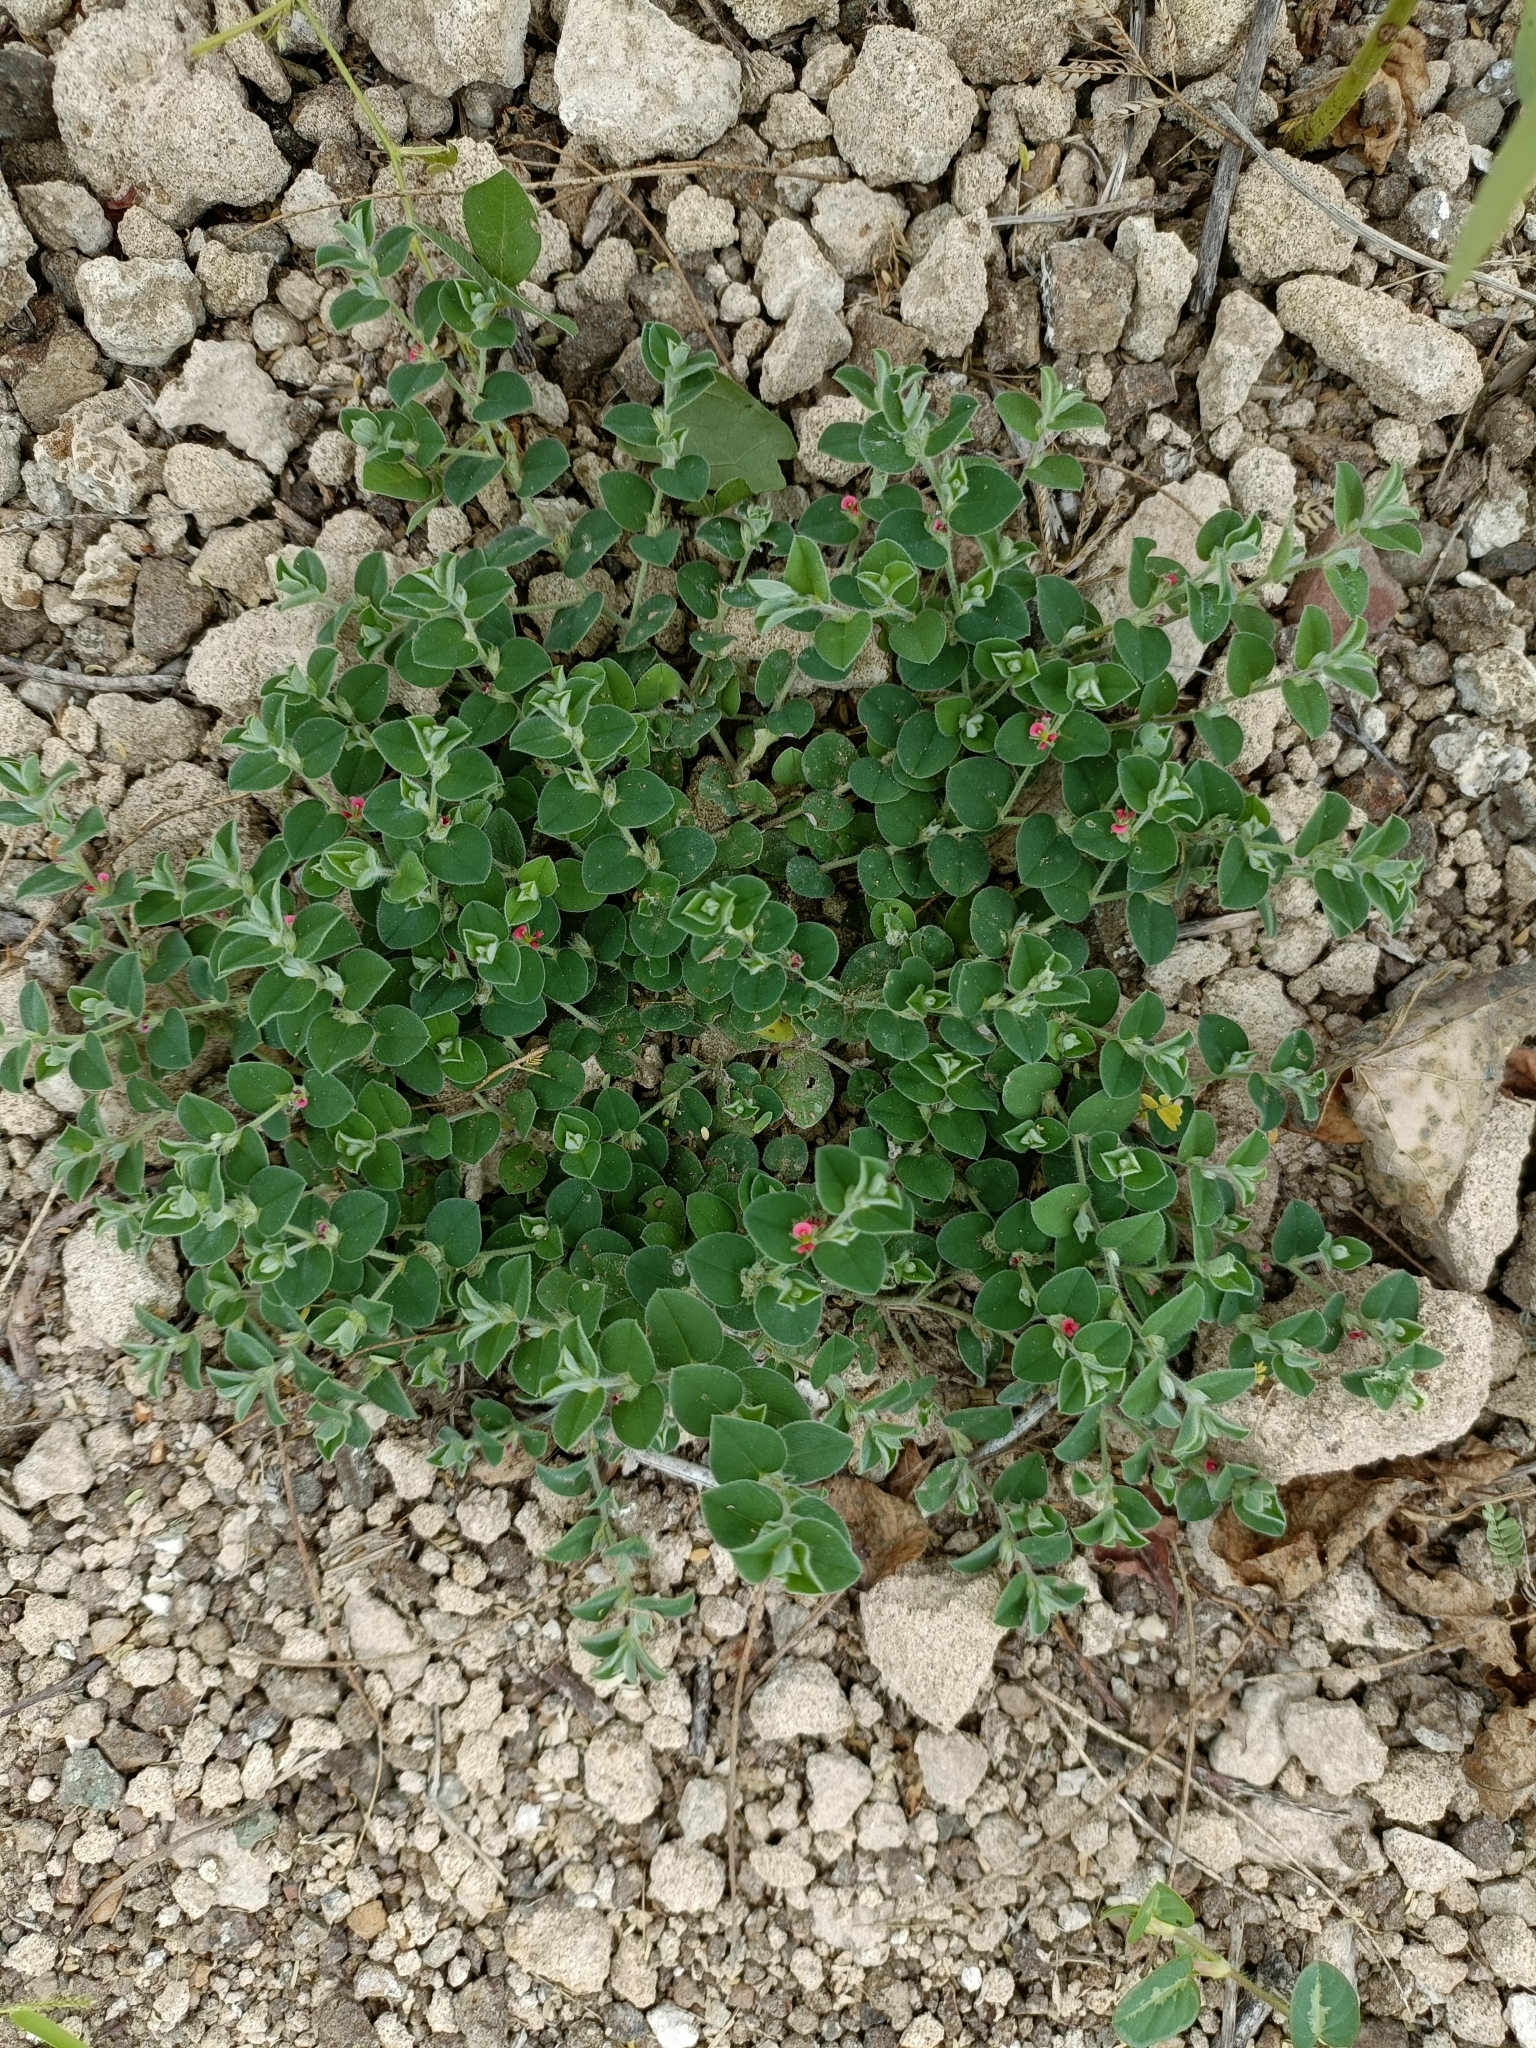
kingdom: Plantae
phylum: Tracheophyta
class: Magnoliopsida
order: Fabales
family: Fabaceae
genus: Indigofera
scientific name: Indigofera cordifolia
